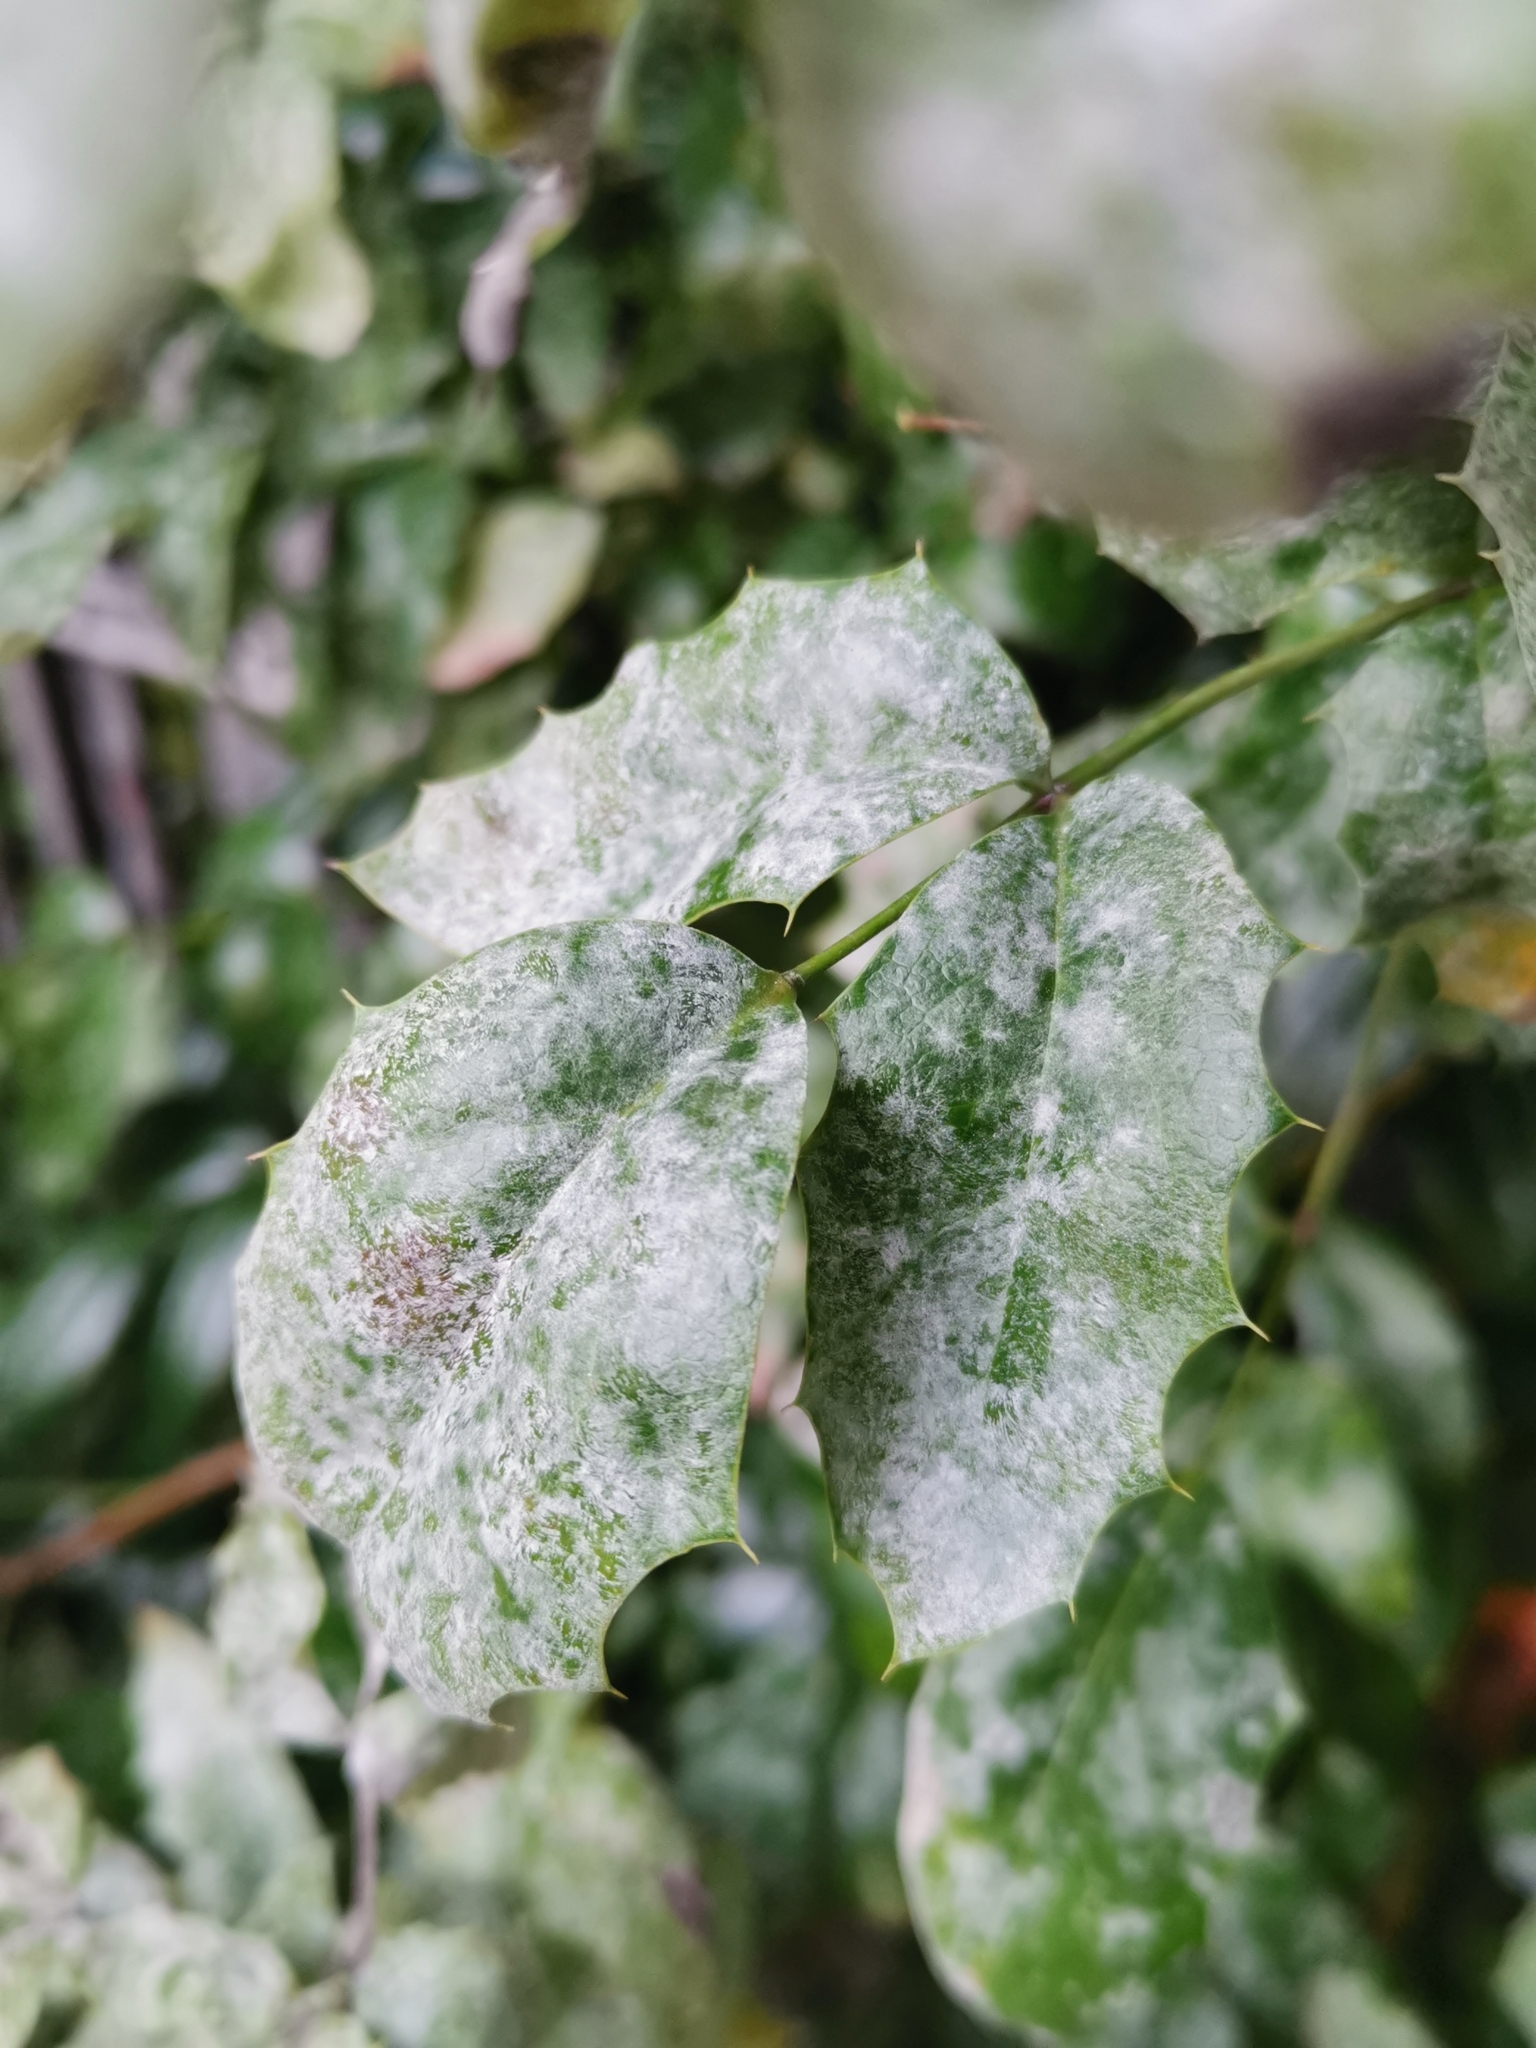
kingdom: Fungi
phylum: Ascomycota
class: Leotiomycetes
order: Helotiales
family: Erysiphaceae
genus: Erysiphe
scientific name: Erysiphe berberidis
